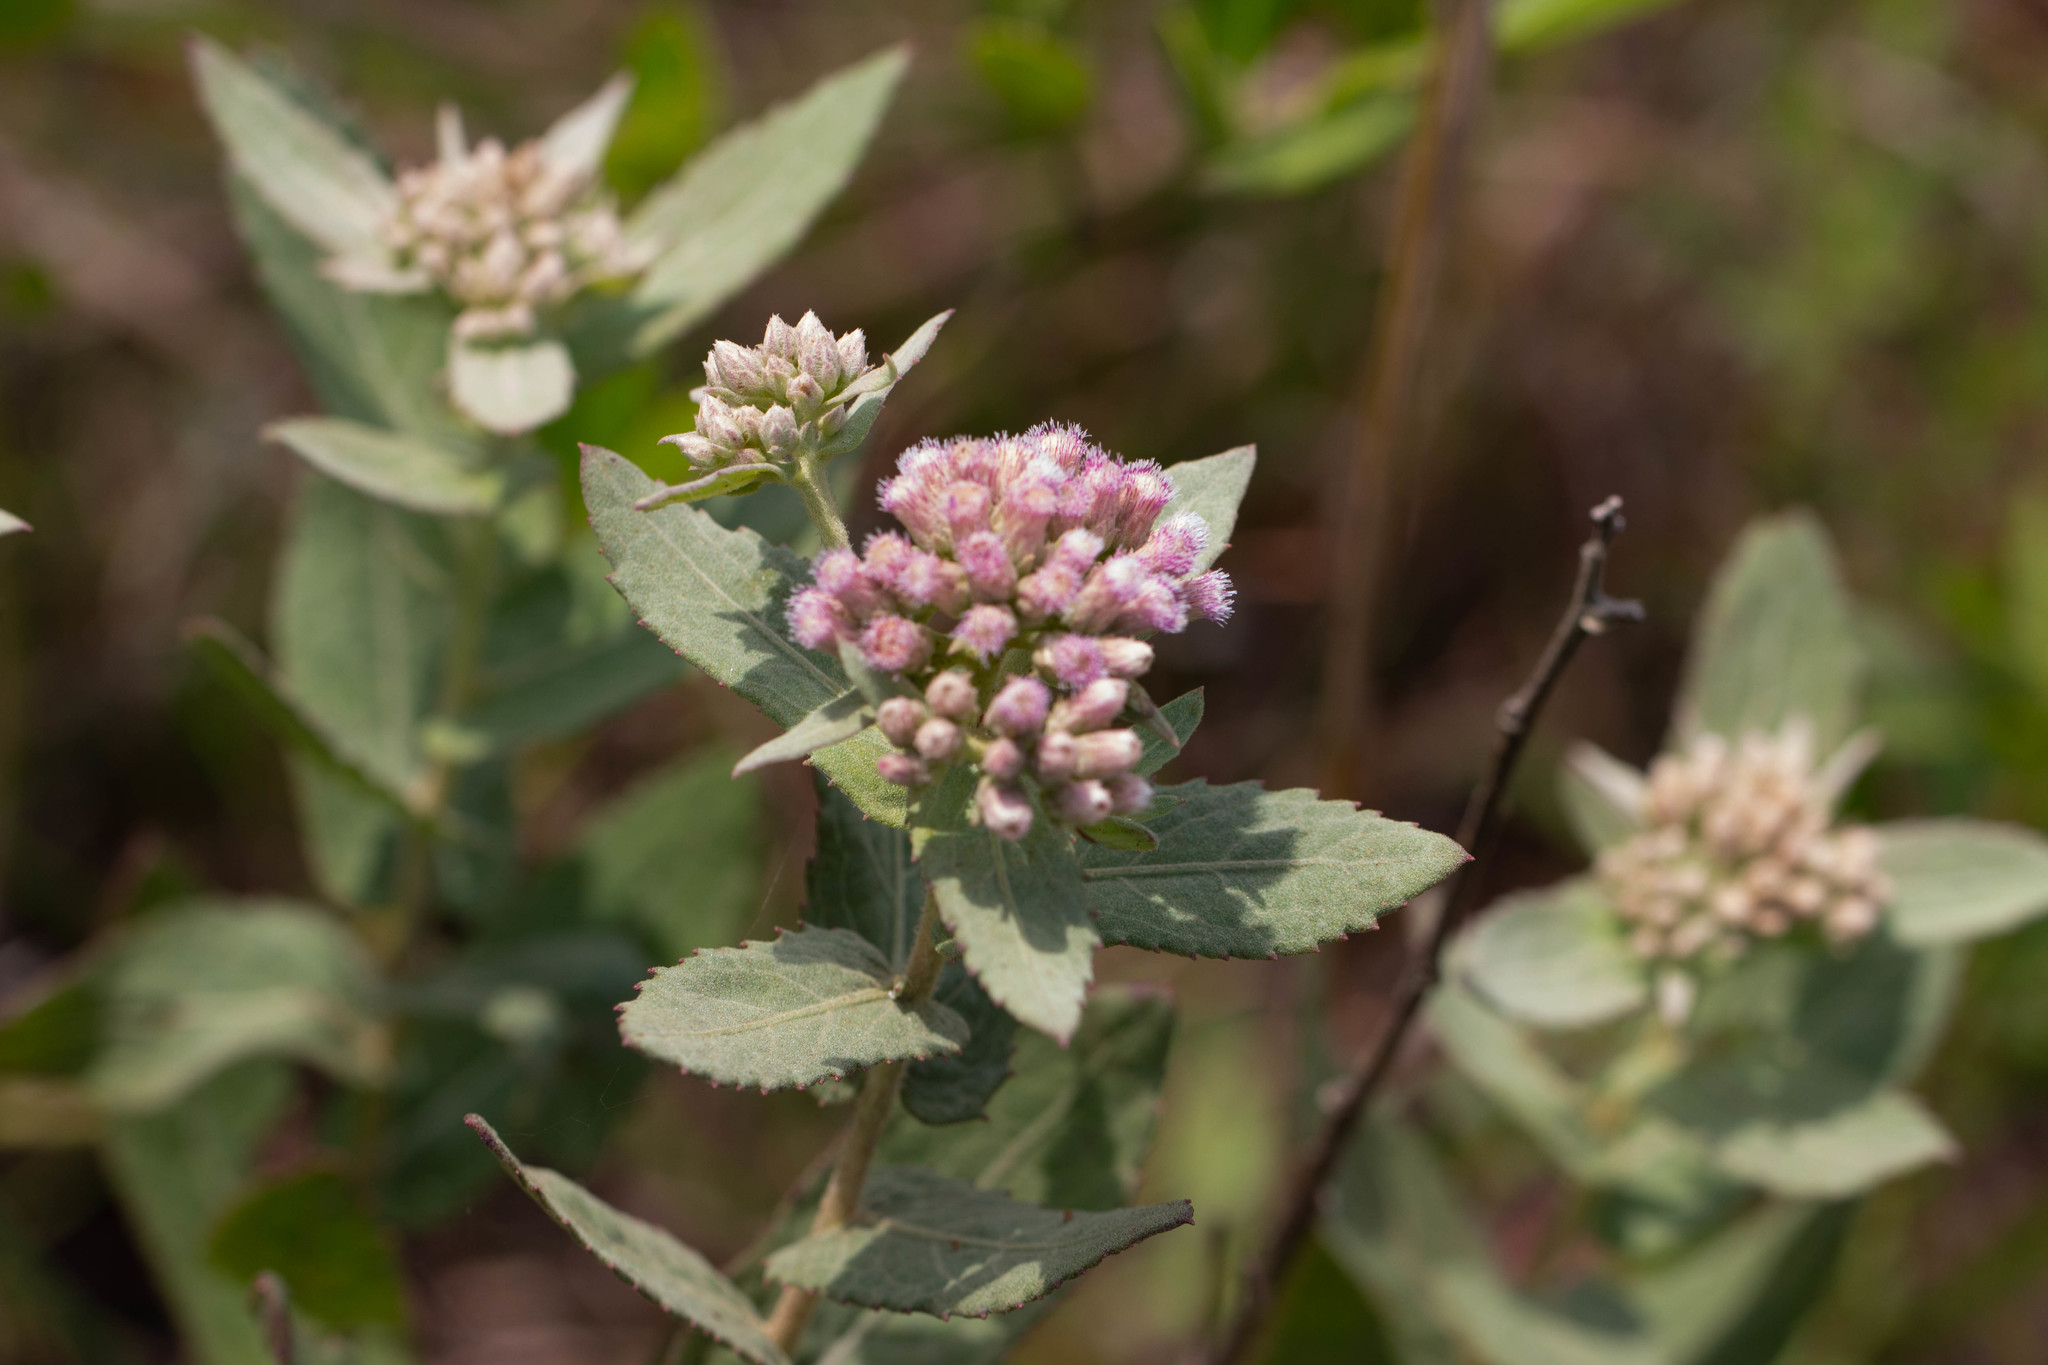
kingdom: Plantae
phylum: Tracheophyta
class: Magnoliopsida
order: Asterales
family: Asteraceae
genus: Pluchea
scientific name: Pluchea baccharis
